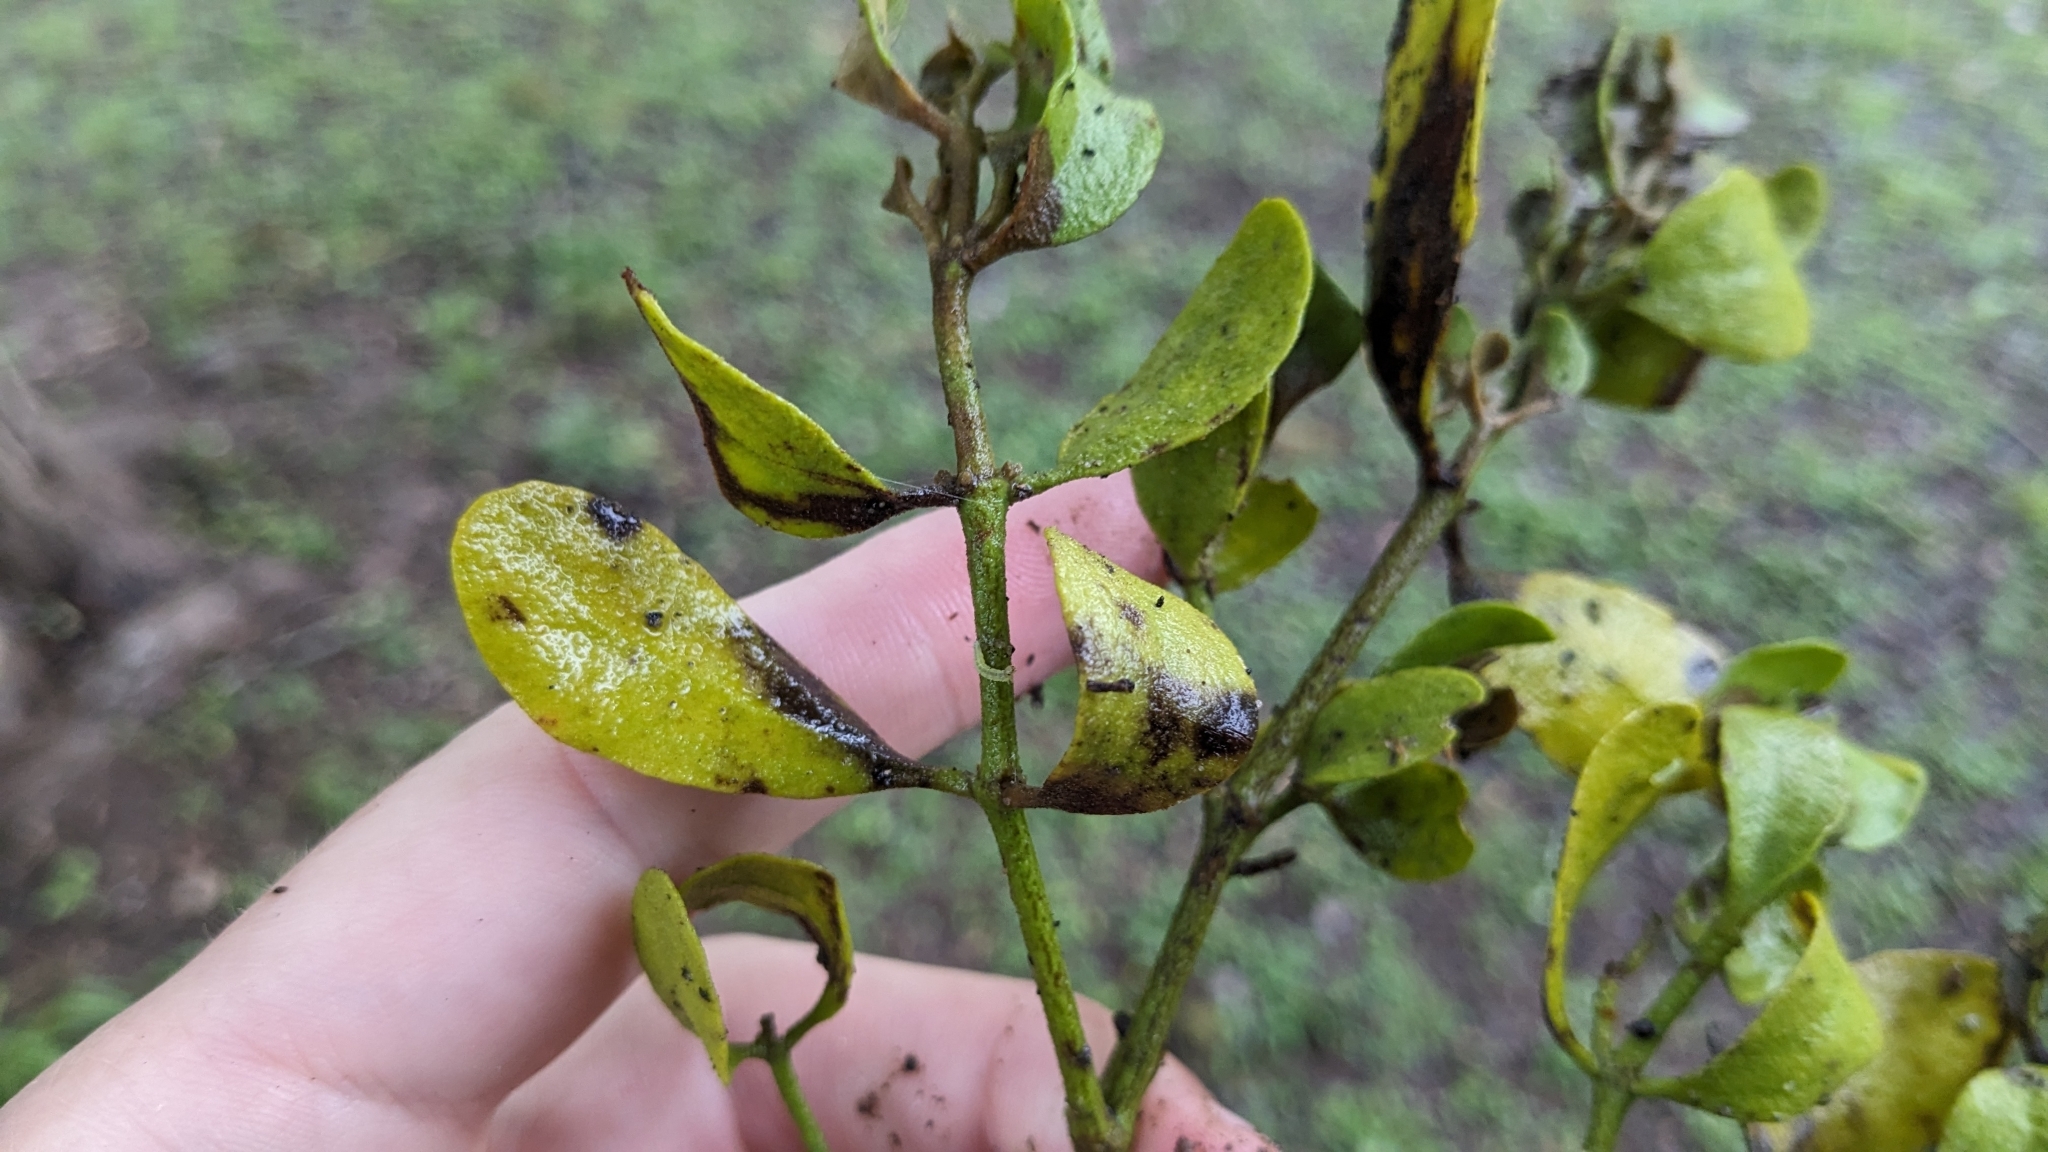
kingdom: Plantae
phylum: Tracheophyta
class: Magnoliopsida
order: Santalales
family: Viscaceae
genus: Phoradendron
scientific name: Phoradendron leucarpum
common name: Pacific mistletoe
